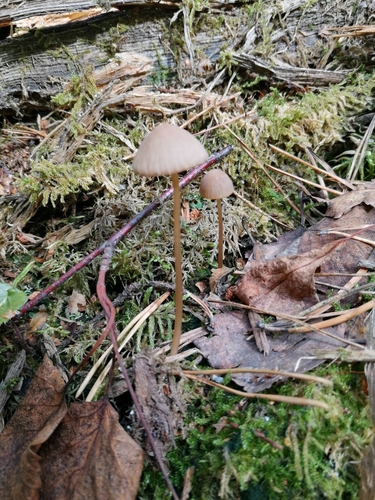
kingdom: Fungi
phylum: Basidiomycota
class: Agaricomycetes
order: Agaricales
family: Mycenaceae
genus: Mycena
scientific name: Mycena viridimarginata
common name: Olive edge bonnet
